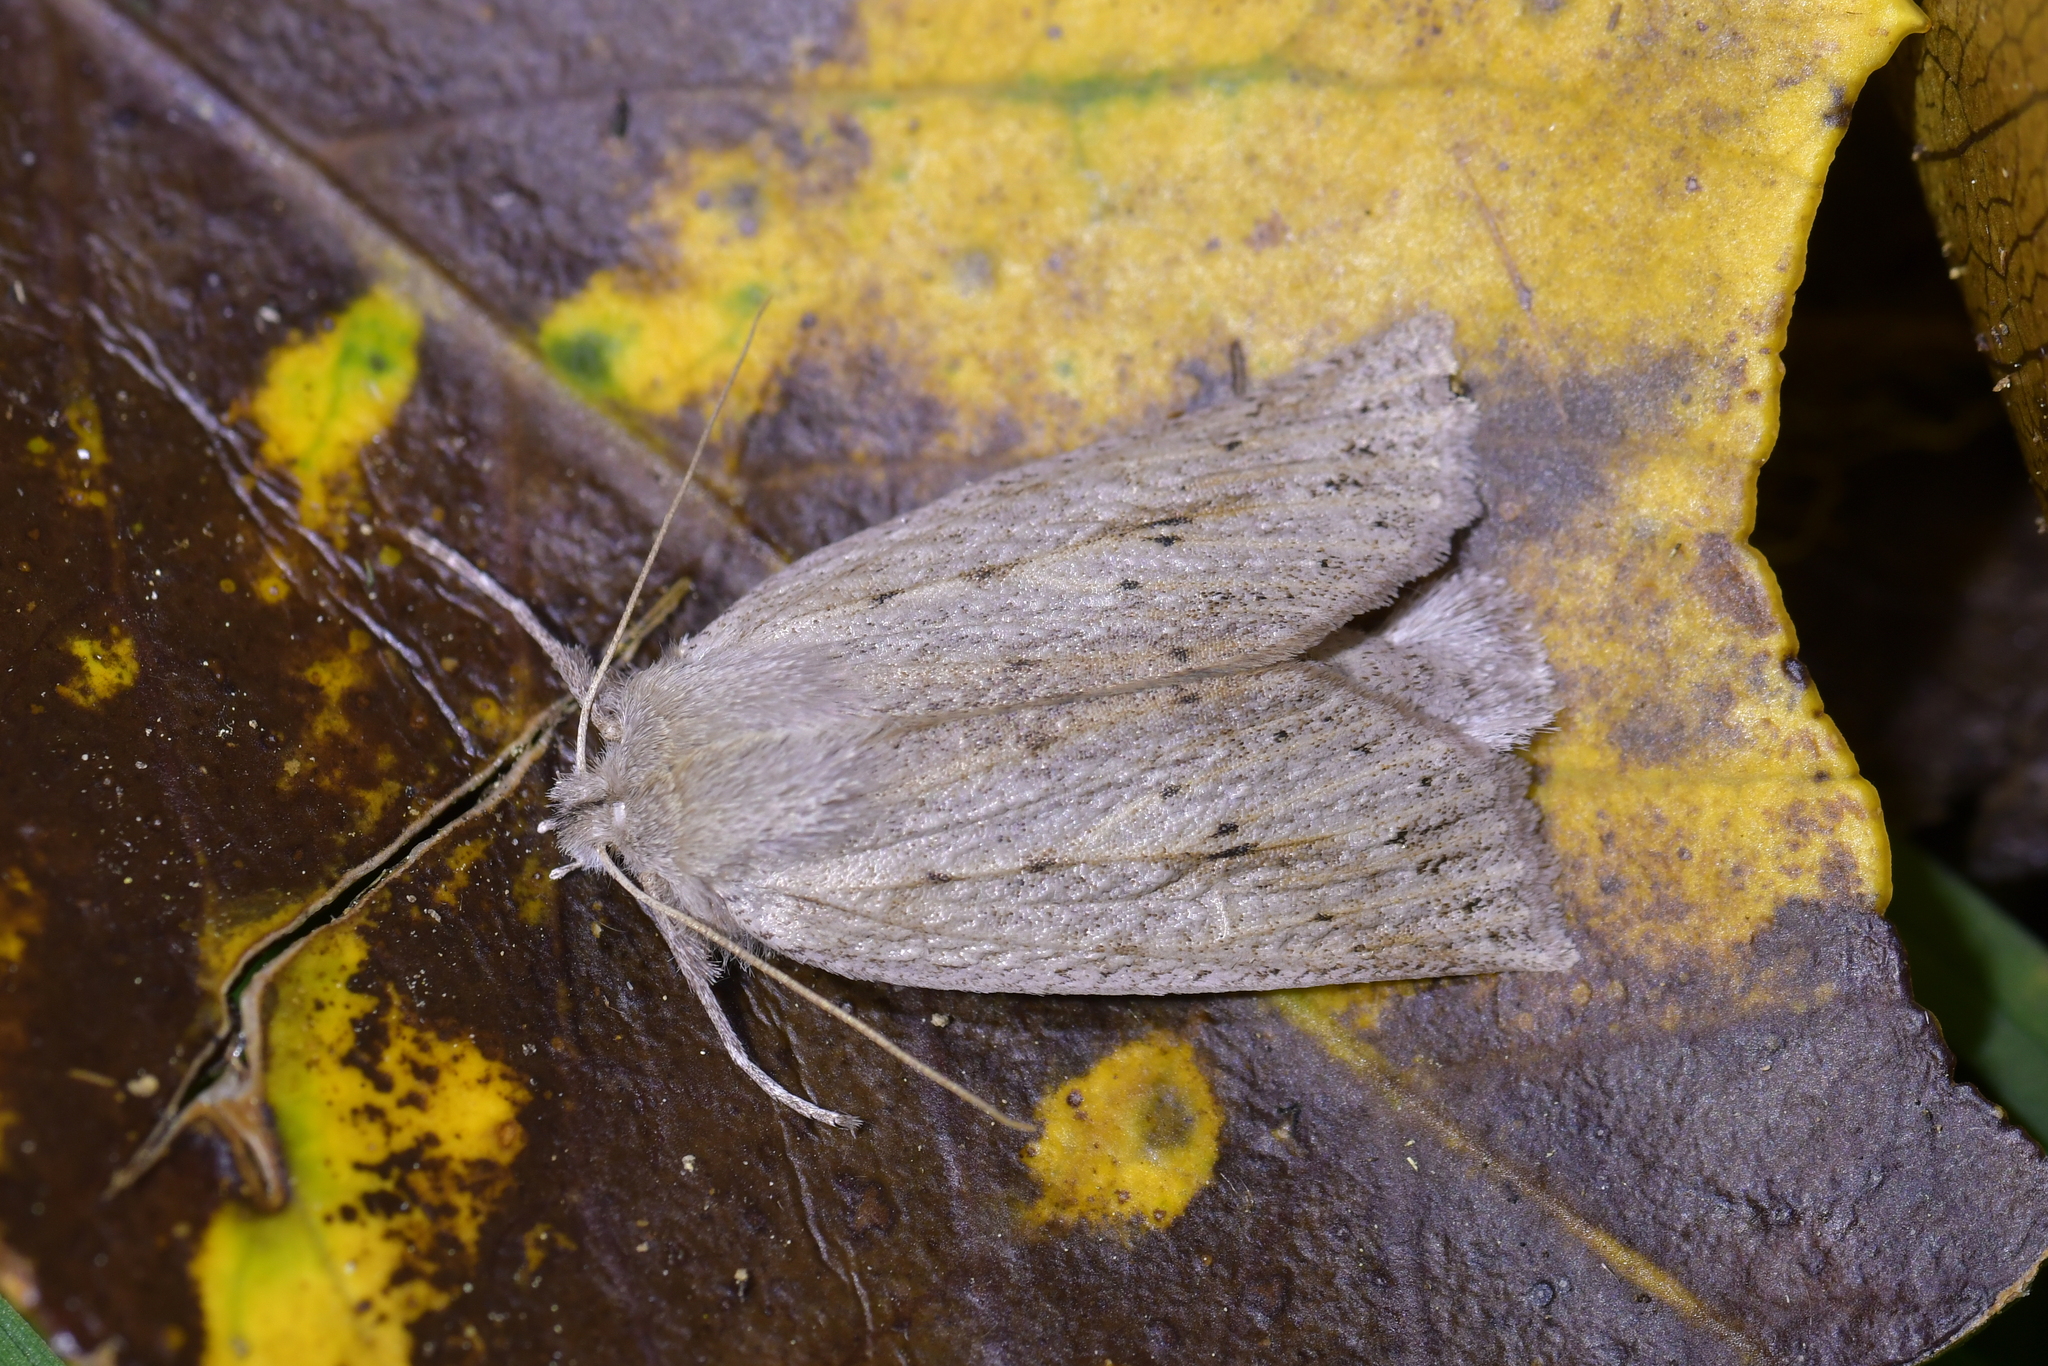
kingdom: Animalia
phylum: Arthropoda
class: Insecta
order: Lepidoptera
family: Geometridae
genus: Declana
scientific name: Declana leptomera
